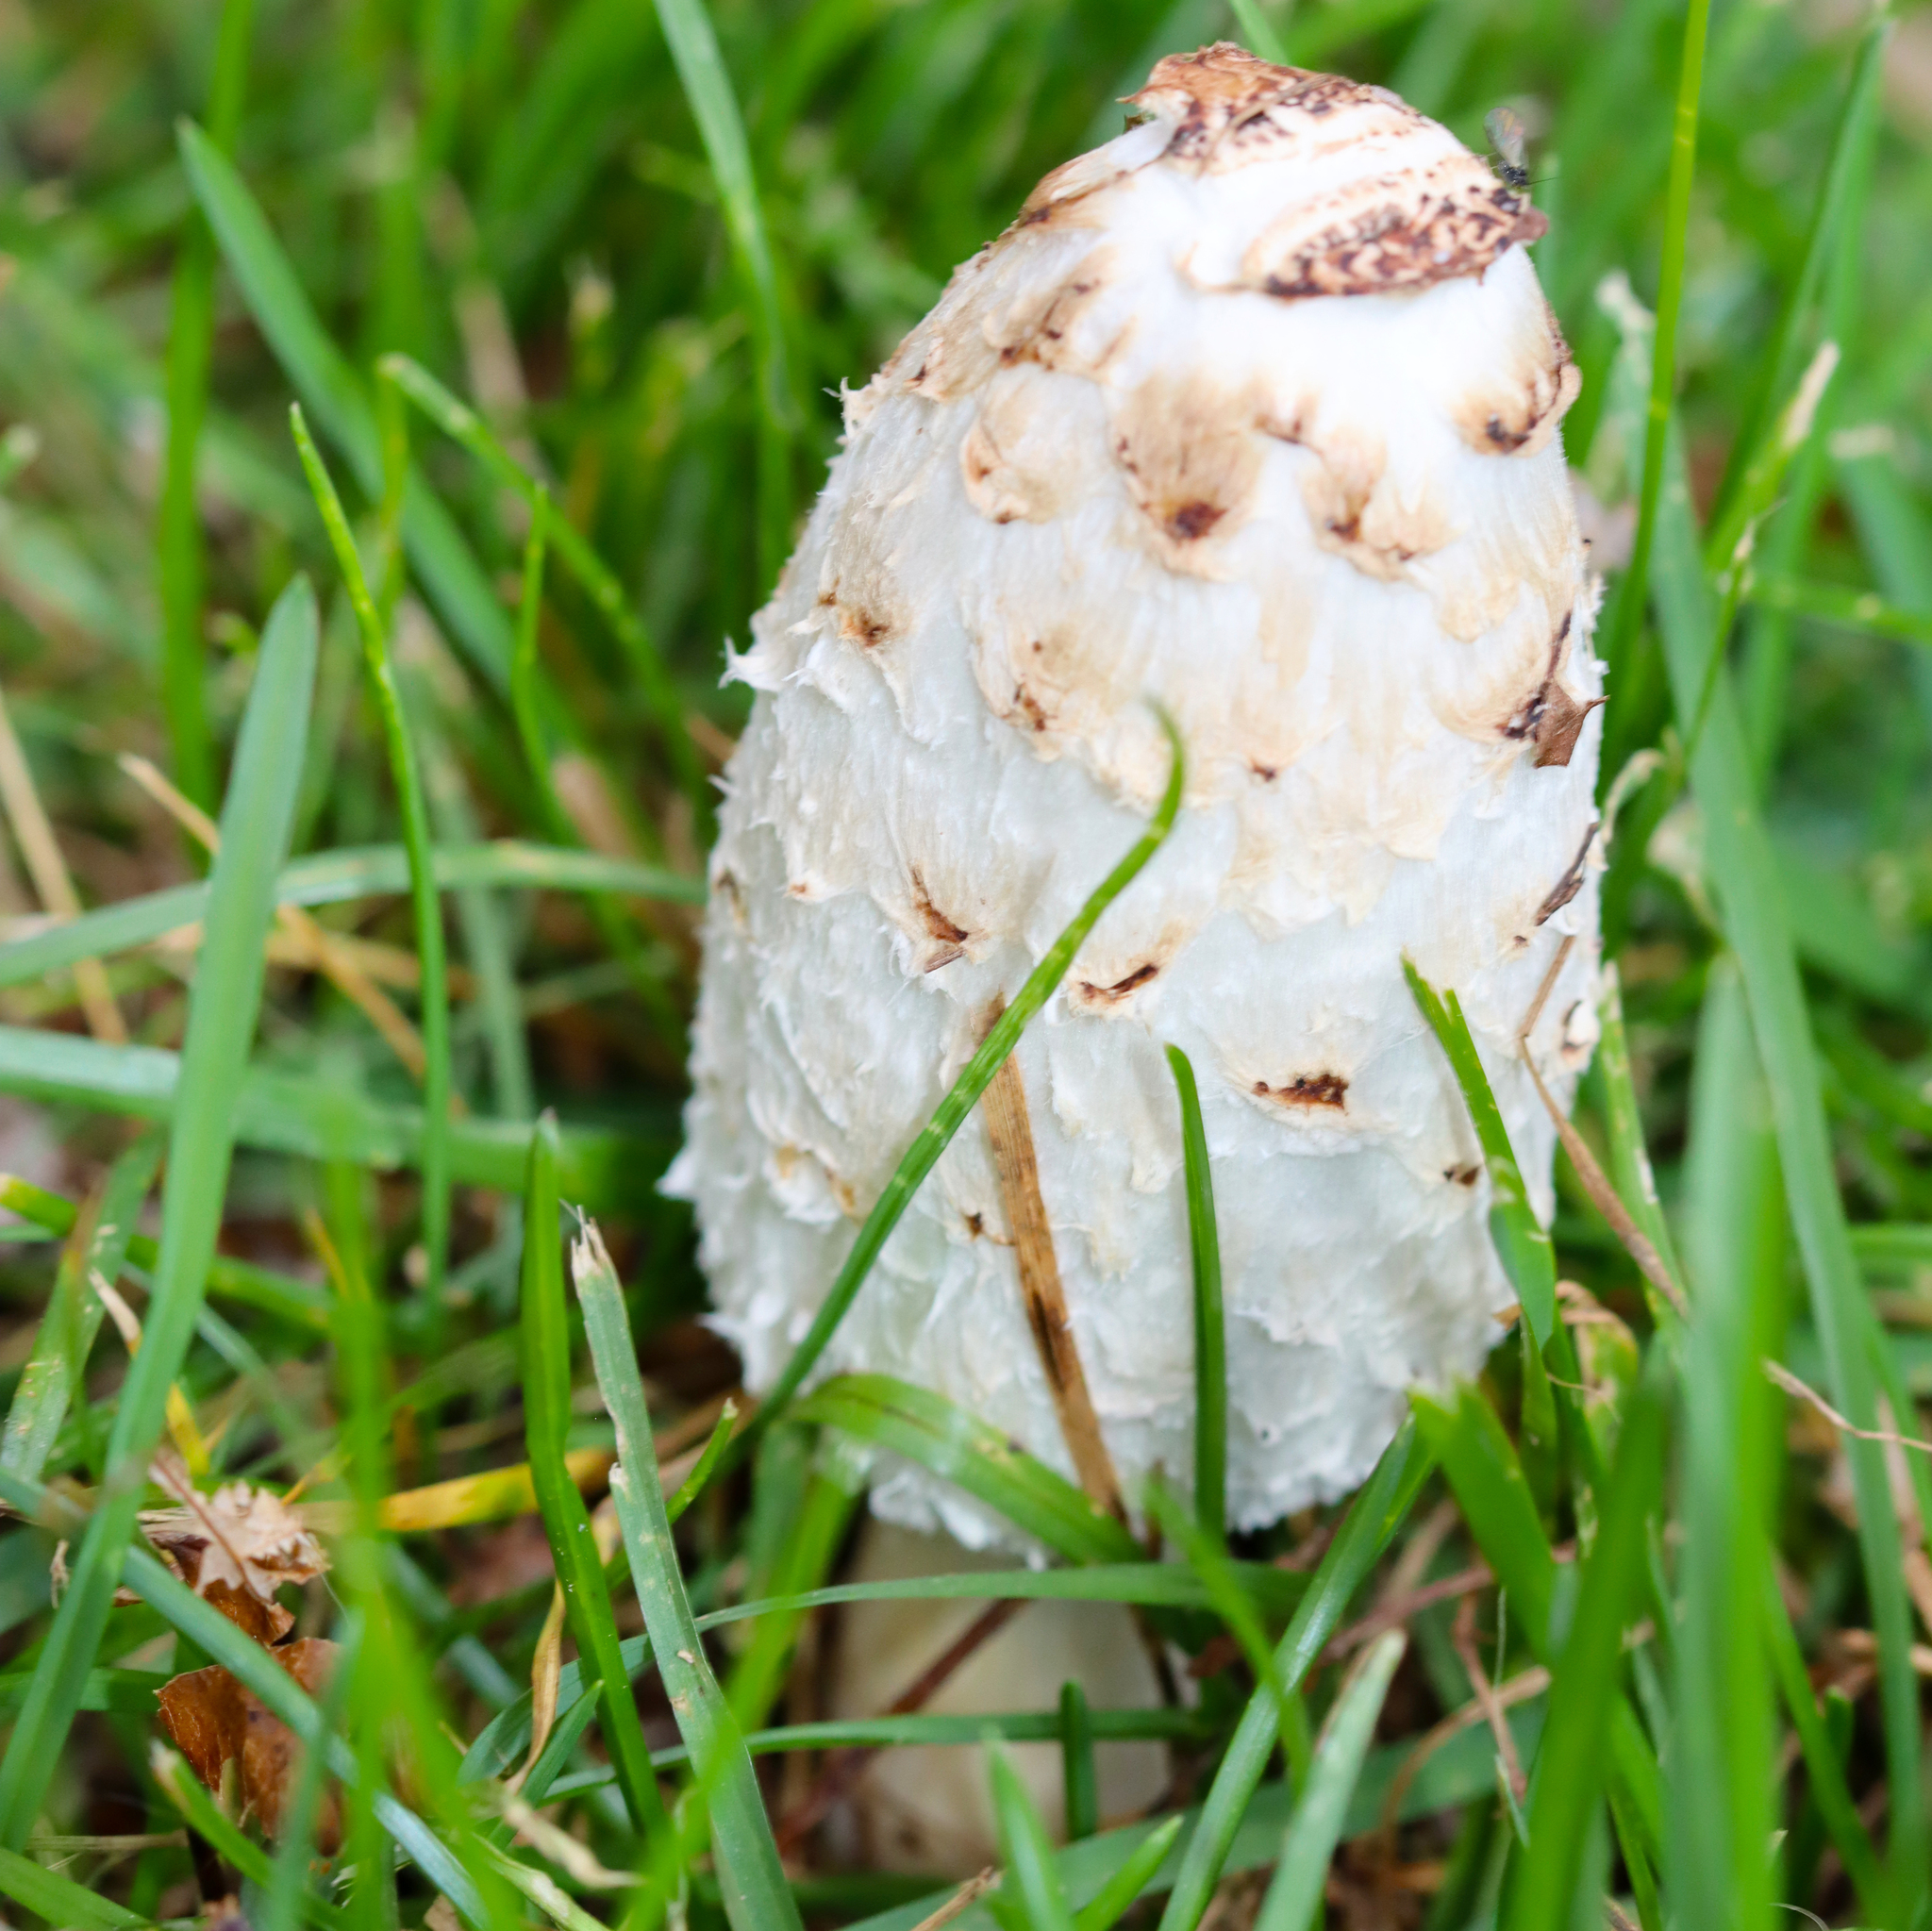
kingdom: Fungi
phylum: Basidiomycota
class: Agaricomycetes
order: Agaricales
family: Agaricaceae
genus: Coprinus
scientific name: Coprinus comatus
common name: Lawyer's wig
